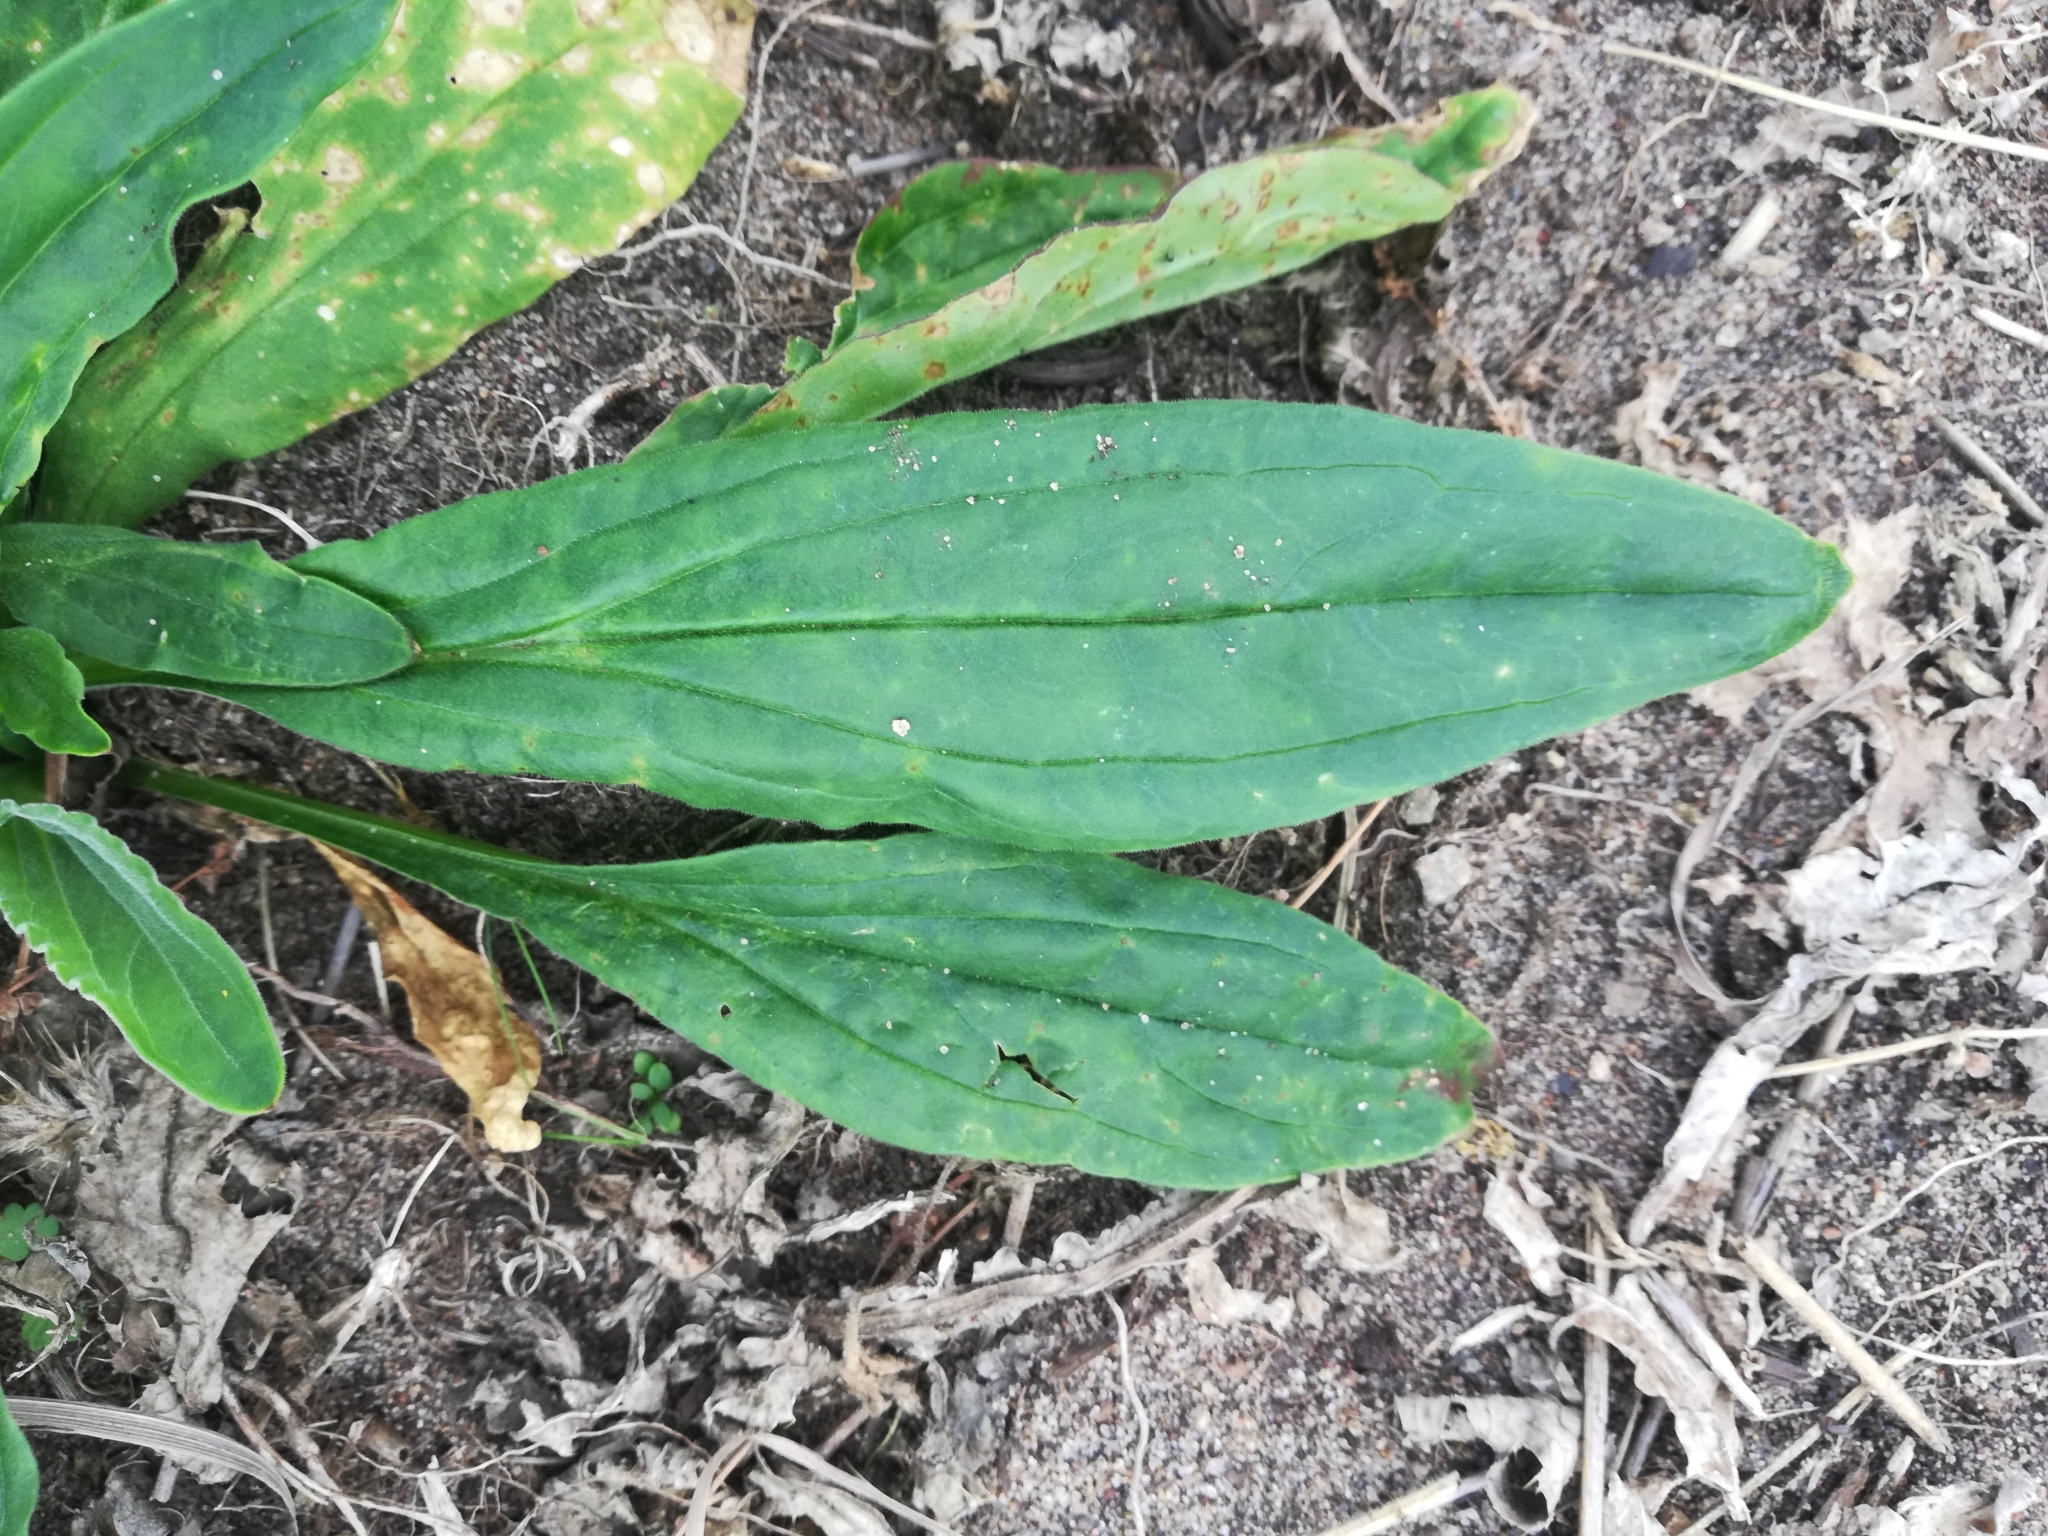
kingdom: Plantae
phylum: Tracheophyta
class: Magnoliopsida
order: Lamiales
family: Plantaginaceae
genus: Plantago
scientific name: Plantago lanceolata
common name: Ribwort plantain
